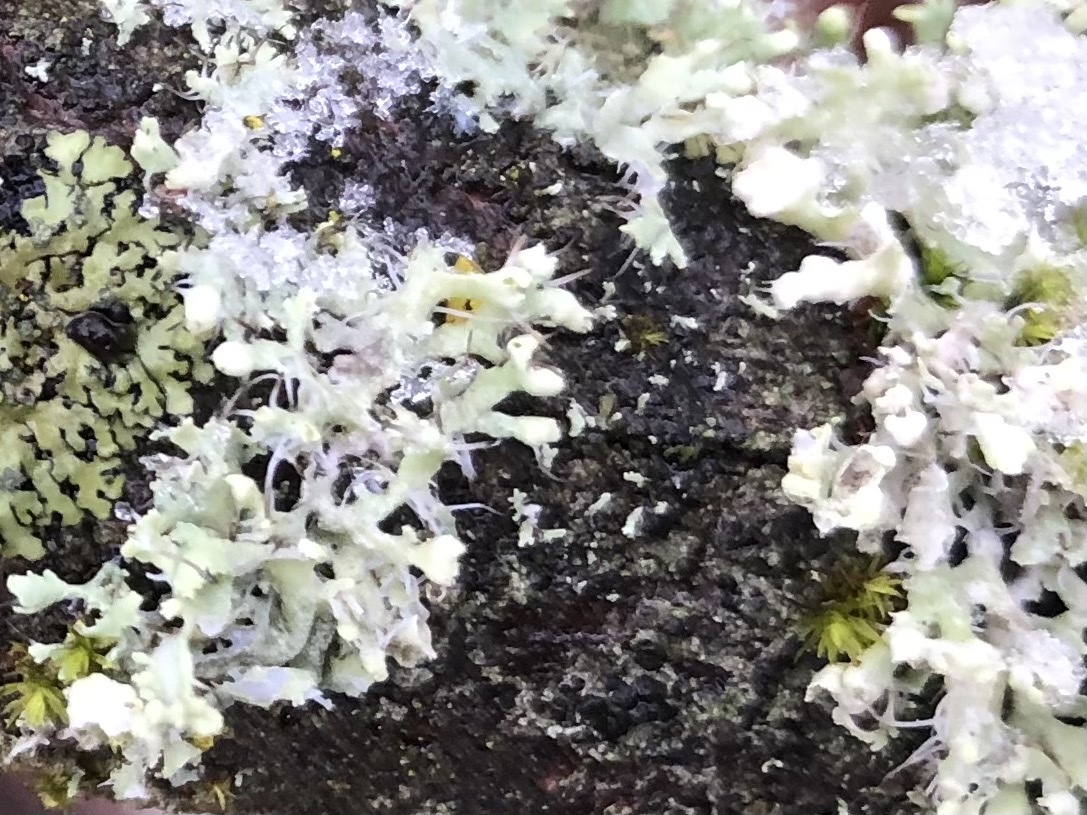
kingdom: Fungi
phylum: Ascomycota
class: Lecanoromycetes
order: Caliciales
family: Physciaceae
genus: Physcia
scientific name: Physcia adscendens
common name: Hooded rosette lichen
